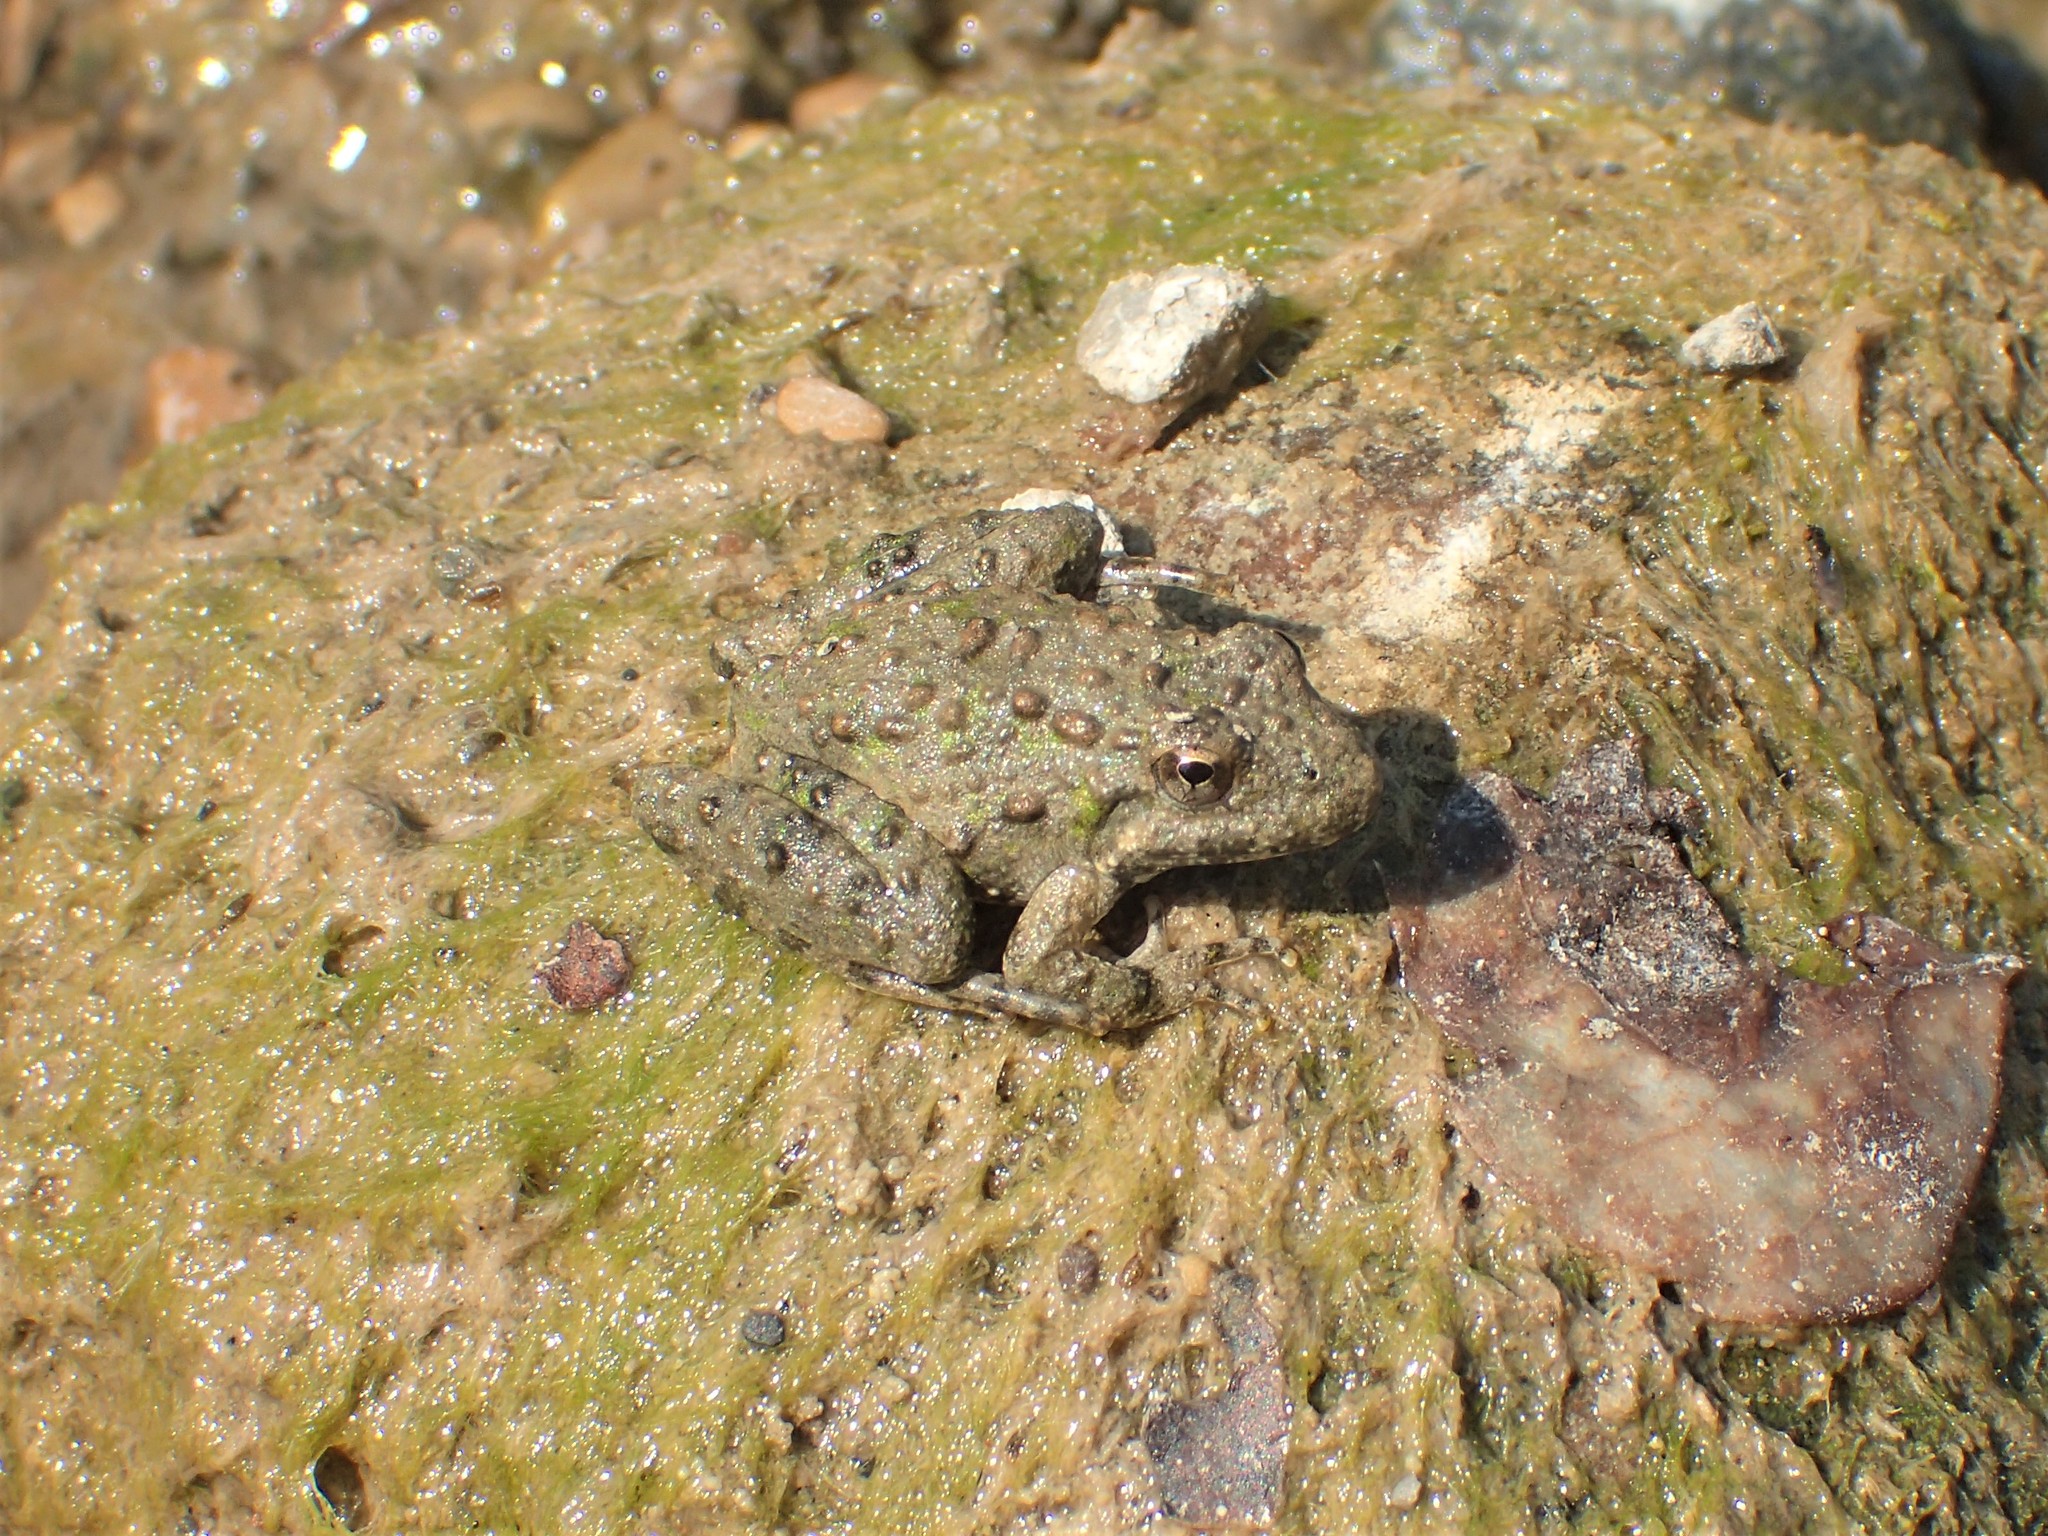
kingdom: Animalia
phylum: Chordata
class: Amphibia
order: Anura
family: Hylidae
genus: Acris
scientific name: Acris blanchardi
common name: Blanchard's cricket frog
